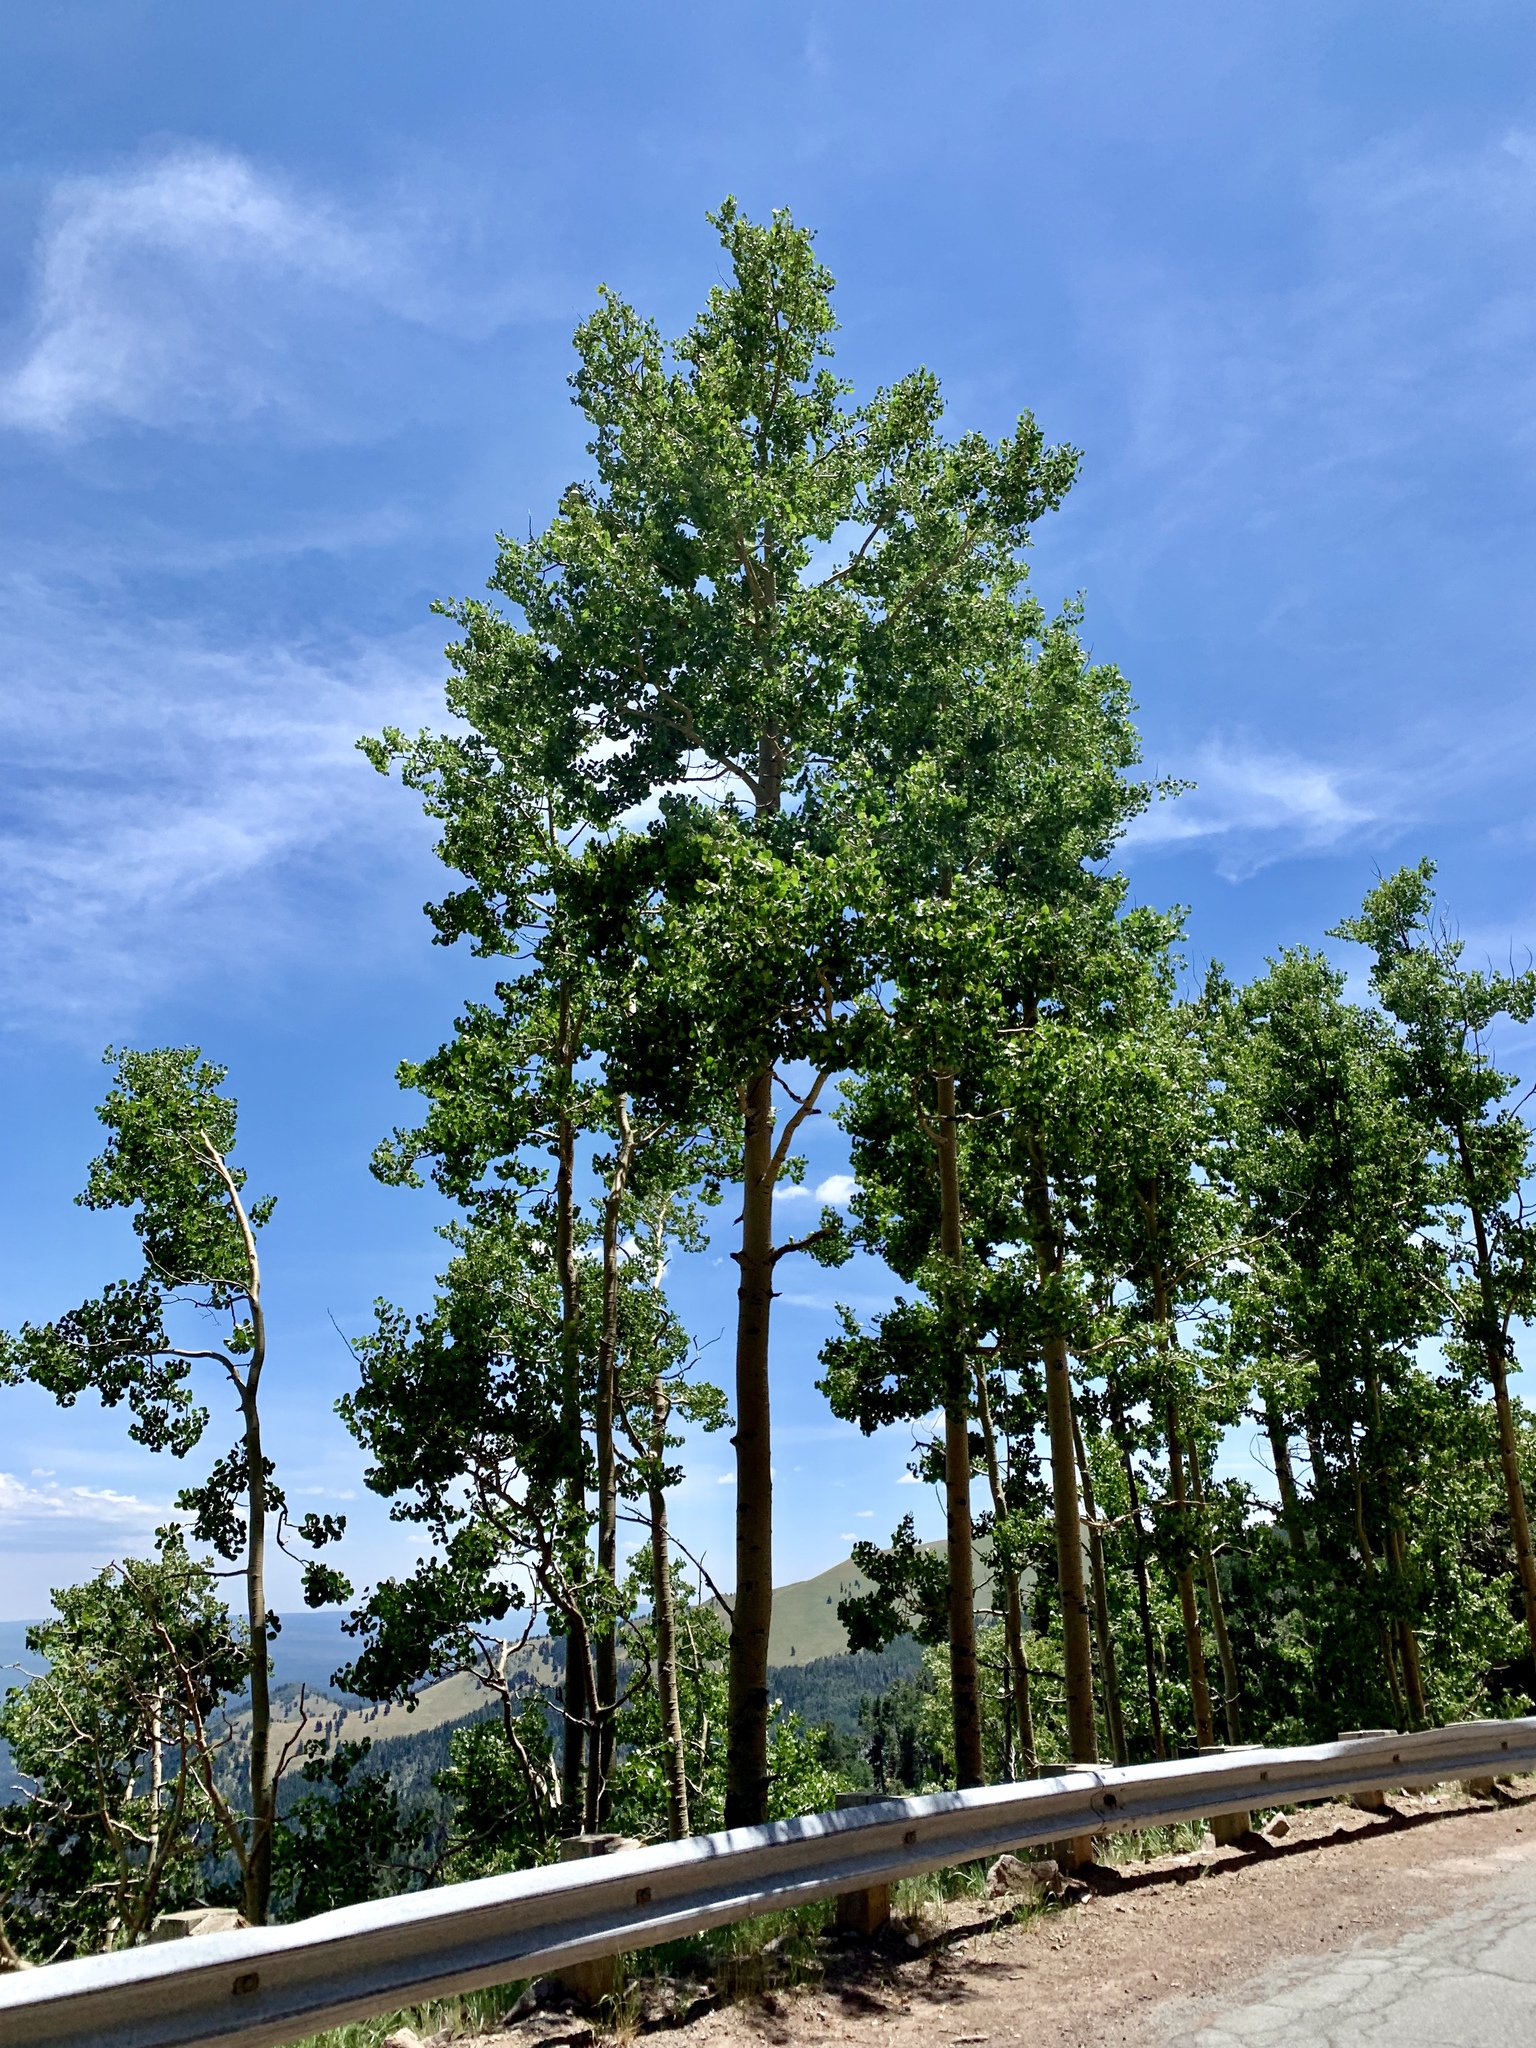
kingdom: Plantae
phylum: Tracheophyta
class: Magnoliopsida
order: Malpighiales
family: Salicaceae
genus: Populus
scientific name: Populus tremuloides
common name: Quaking aspen
